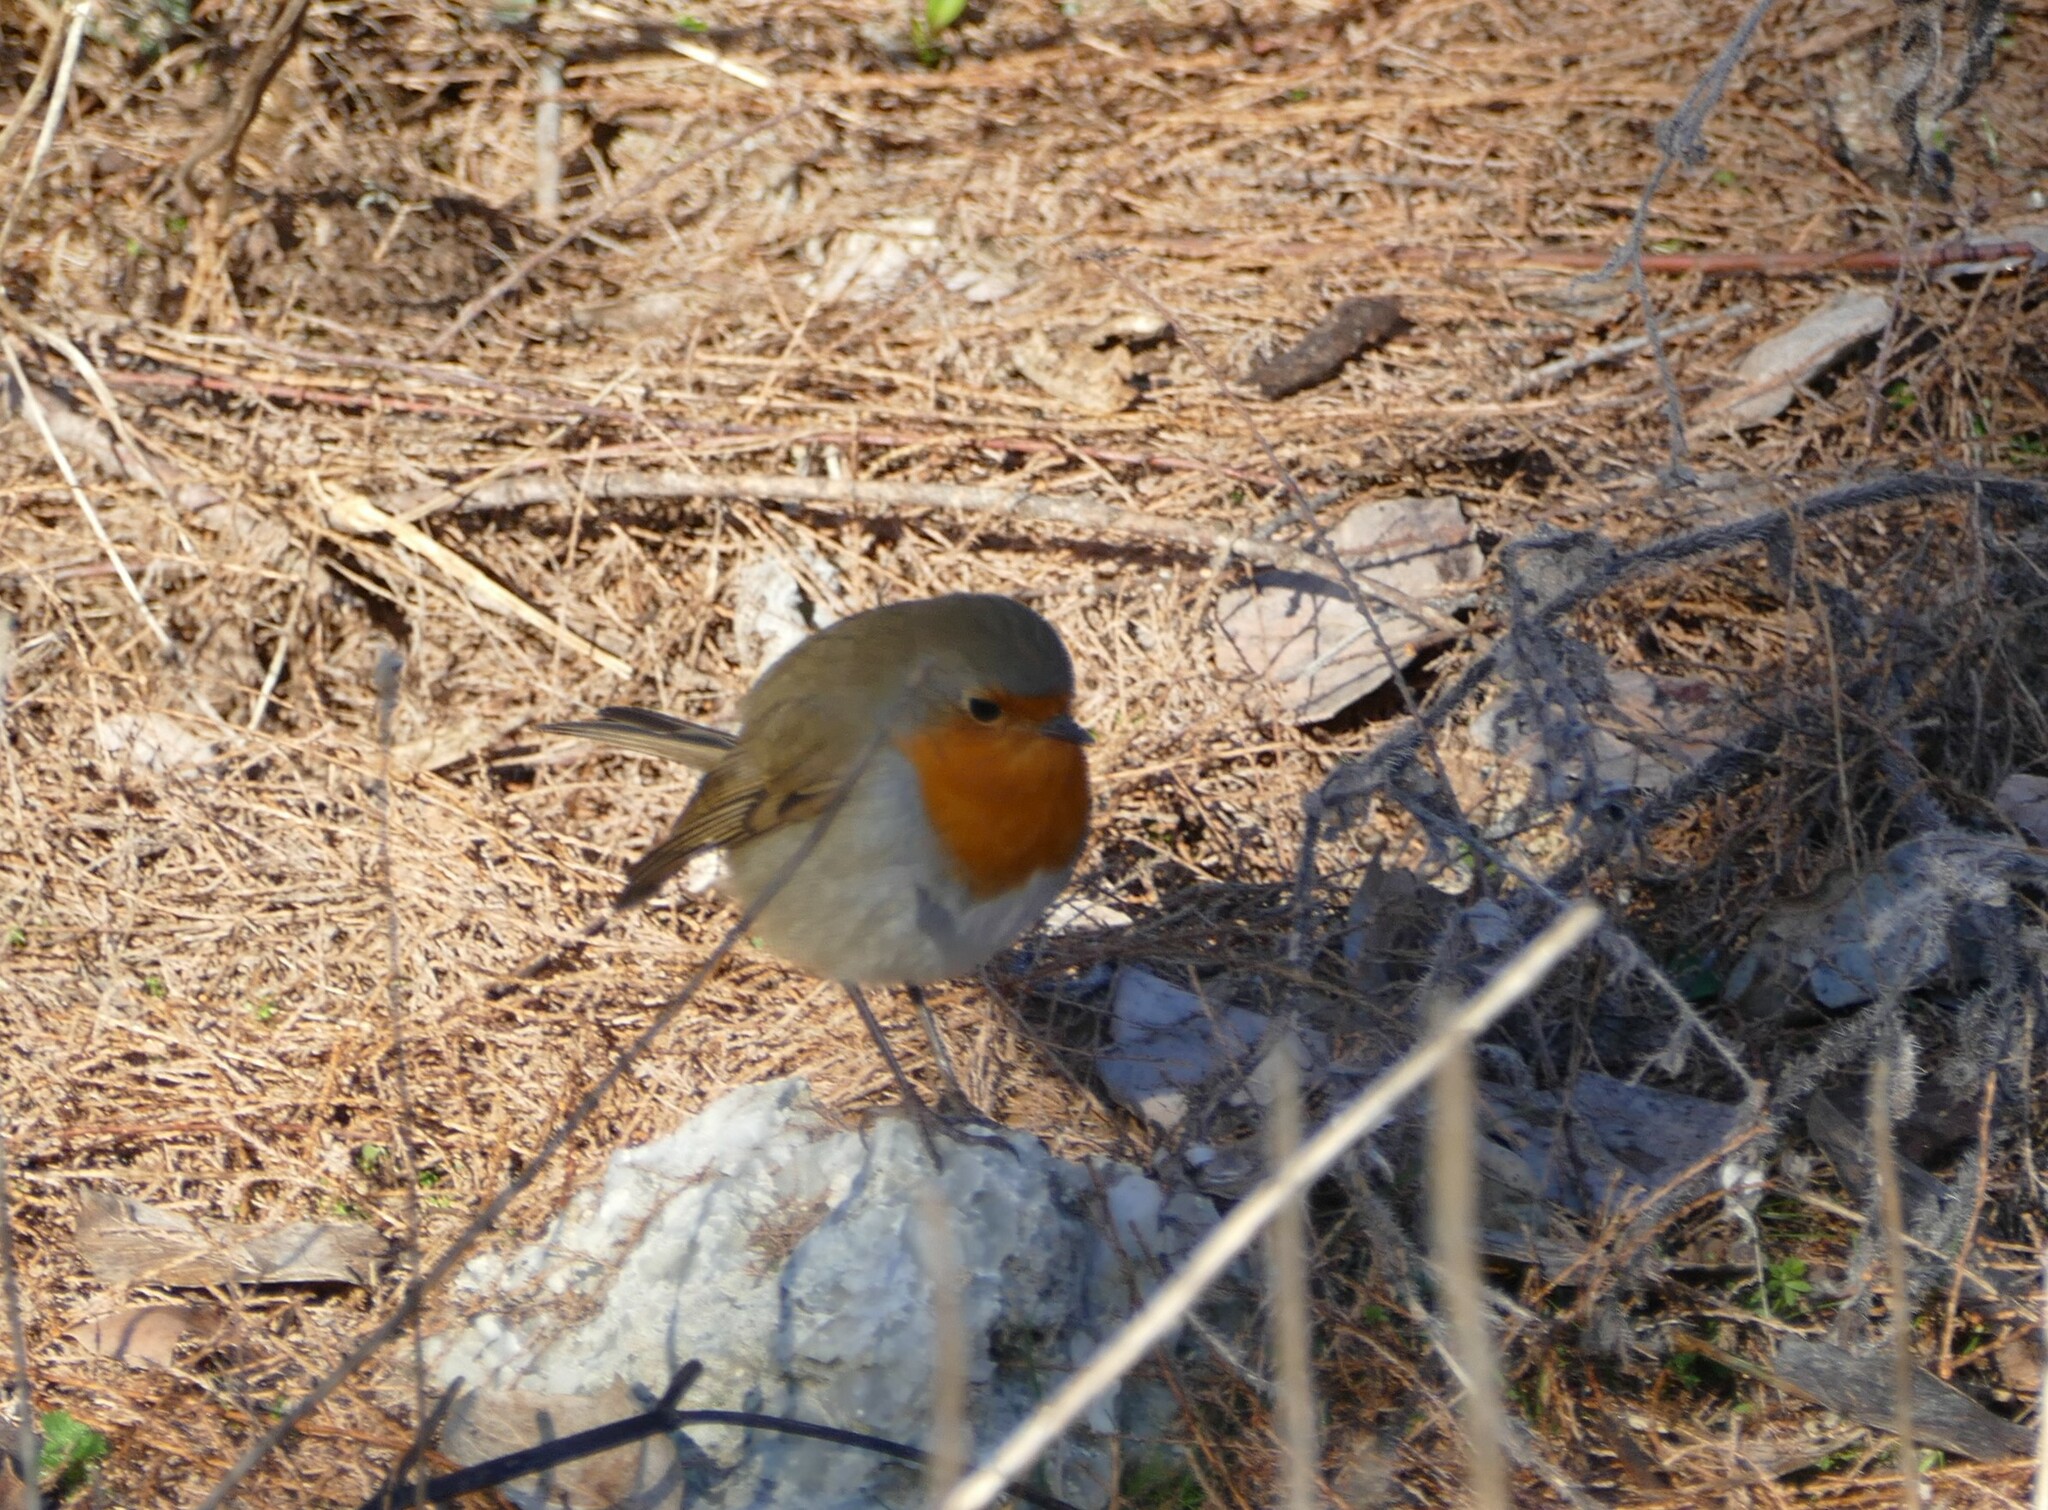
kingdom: Animalia
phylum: Chordata
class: Aves
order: Passeriformes
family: Muscicapidae
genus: Erithacus
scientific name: Erithacus rubecula
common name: European robin
